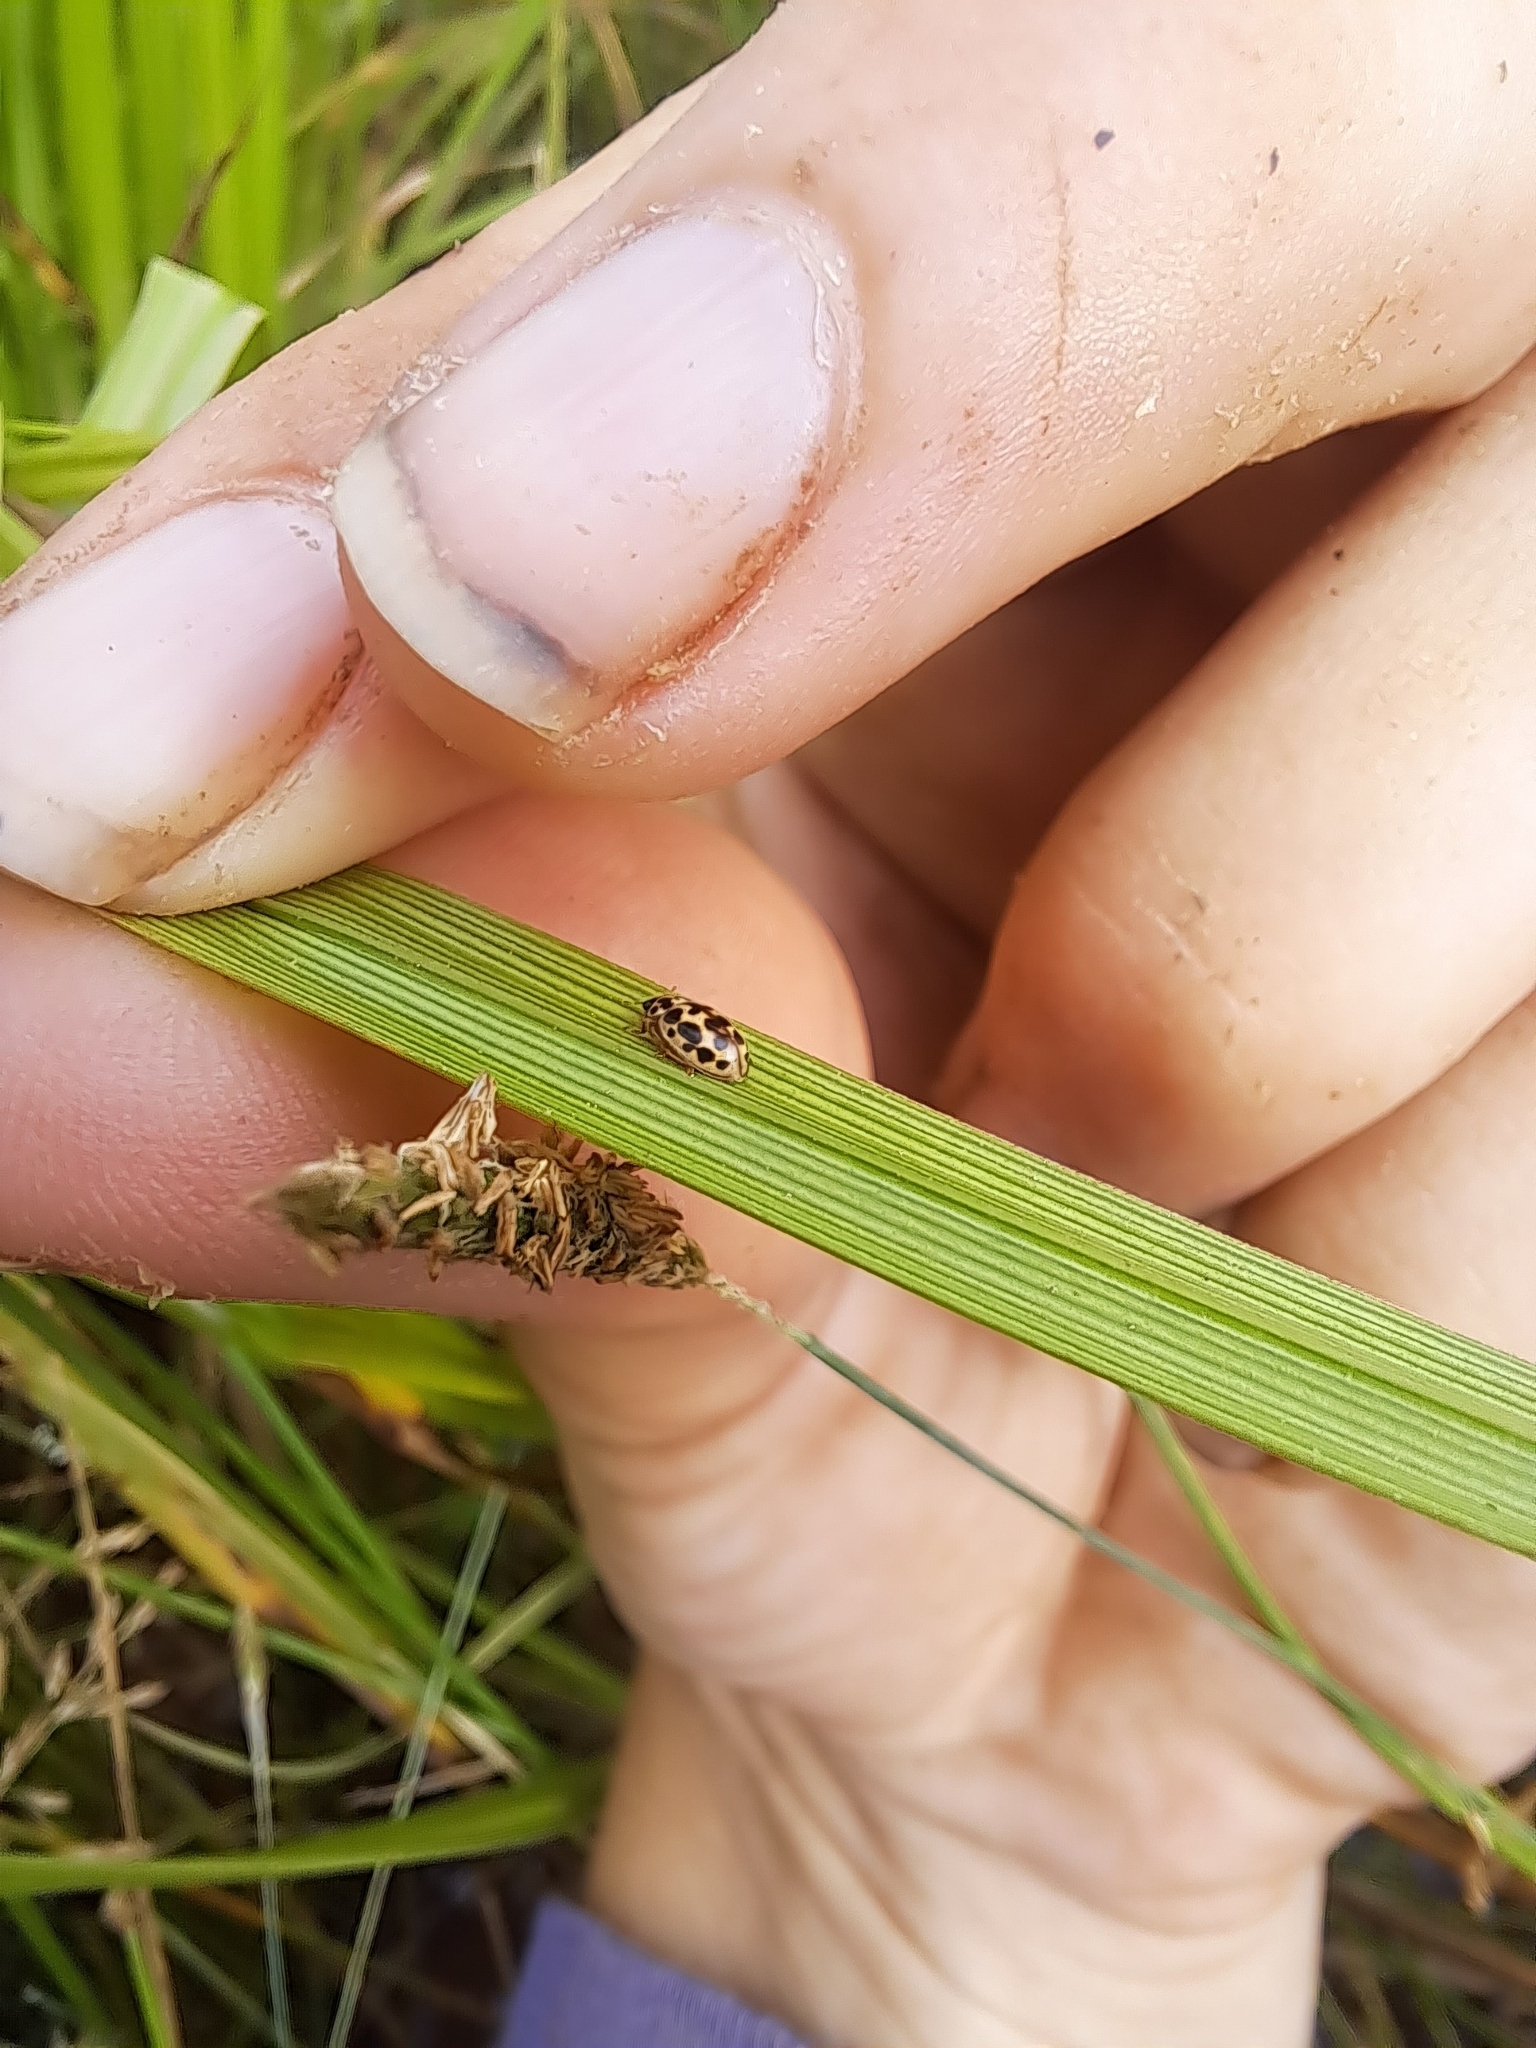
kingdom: Animalia
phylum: Arthropoda
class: Insecta
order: Coleoptera
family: Coccinellidae
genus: Anisosticta
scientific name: Anisosticta bitriangularis
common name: Marsh lady beetle
